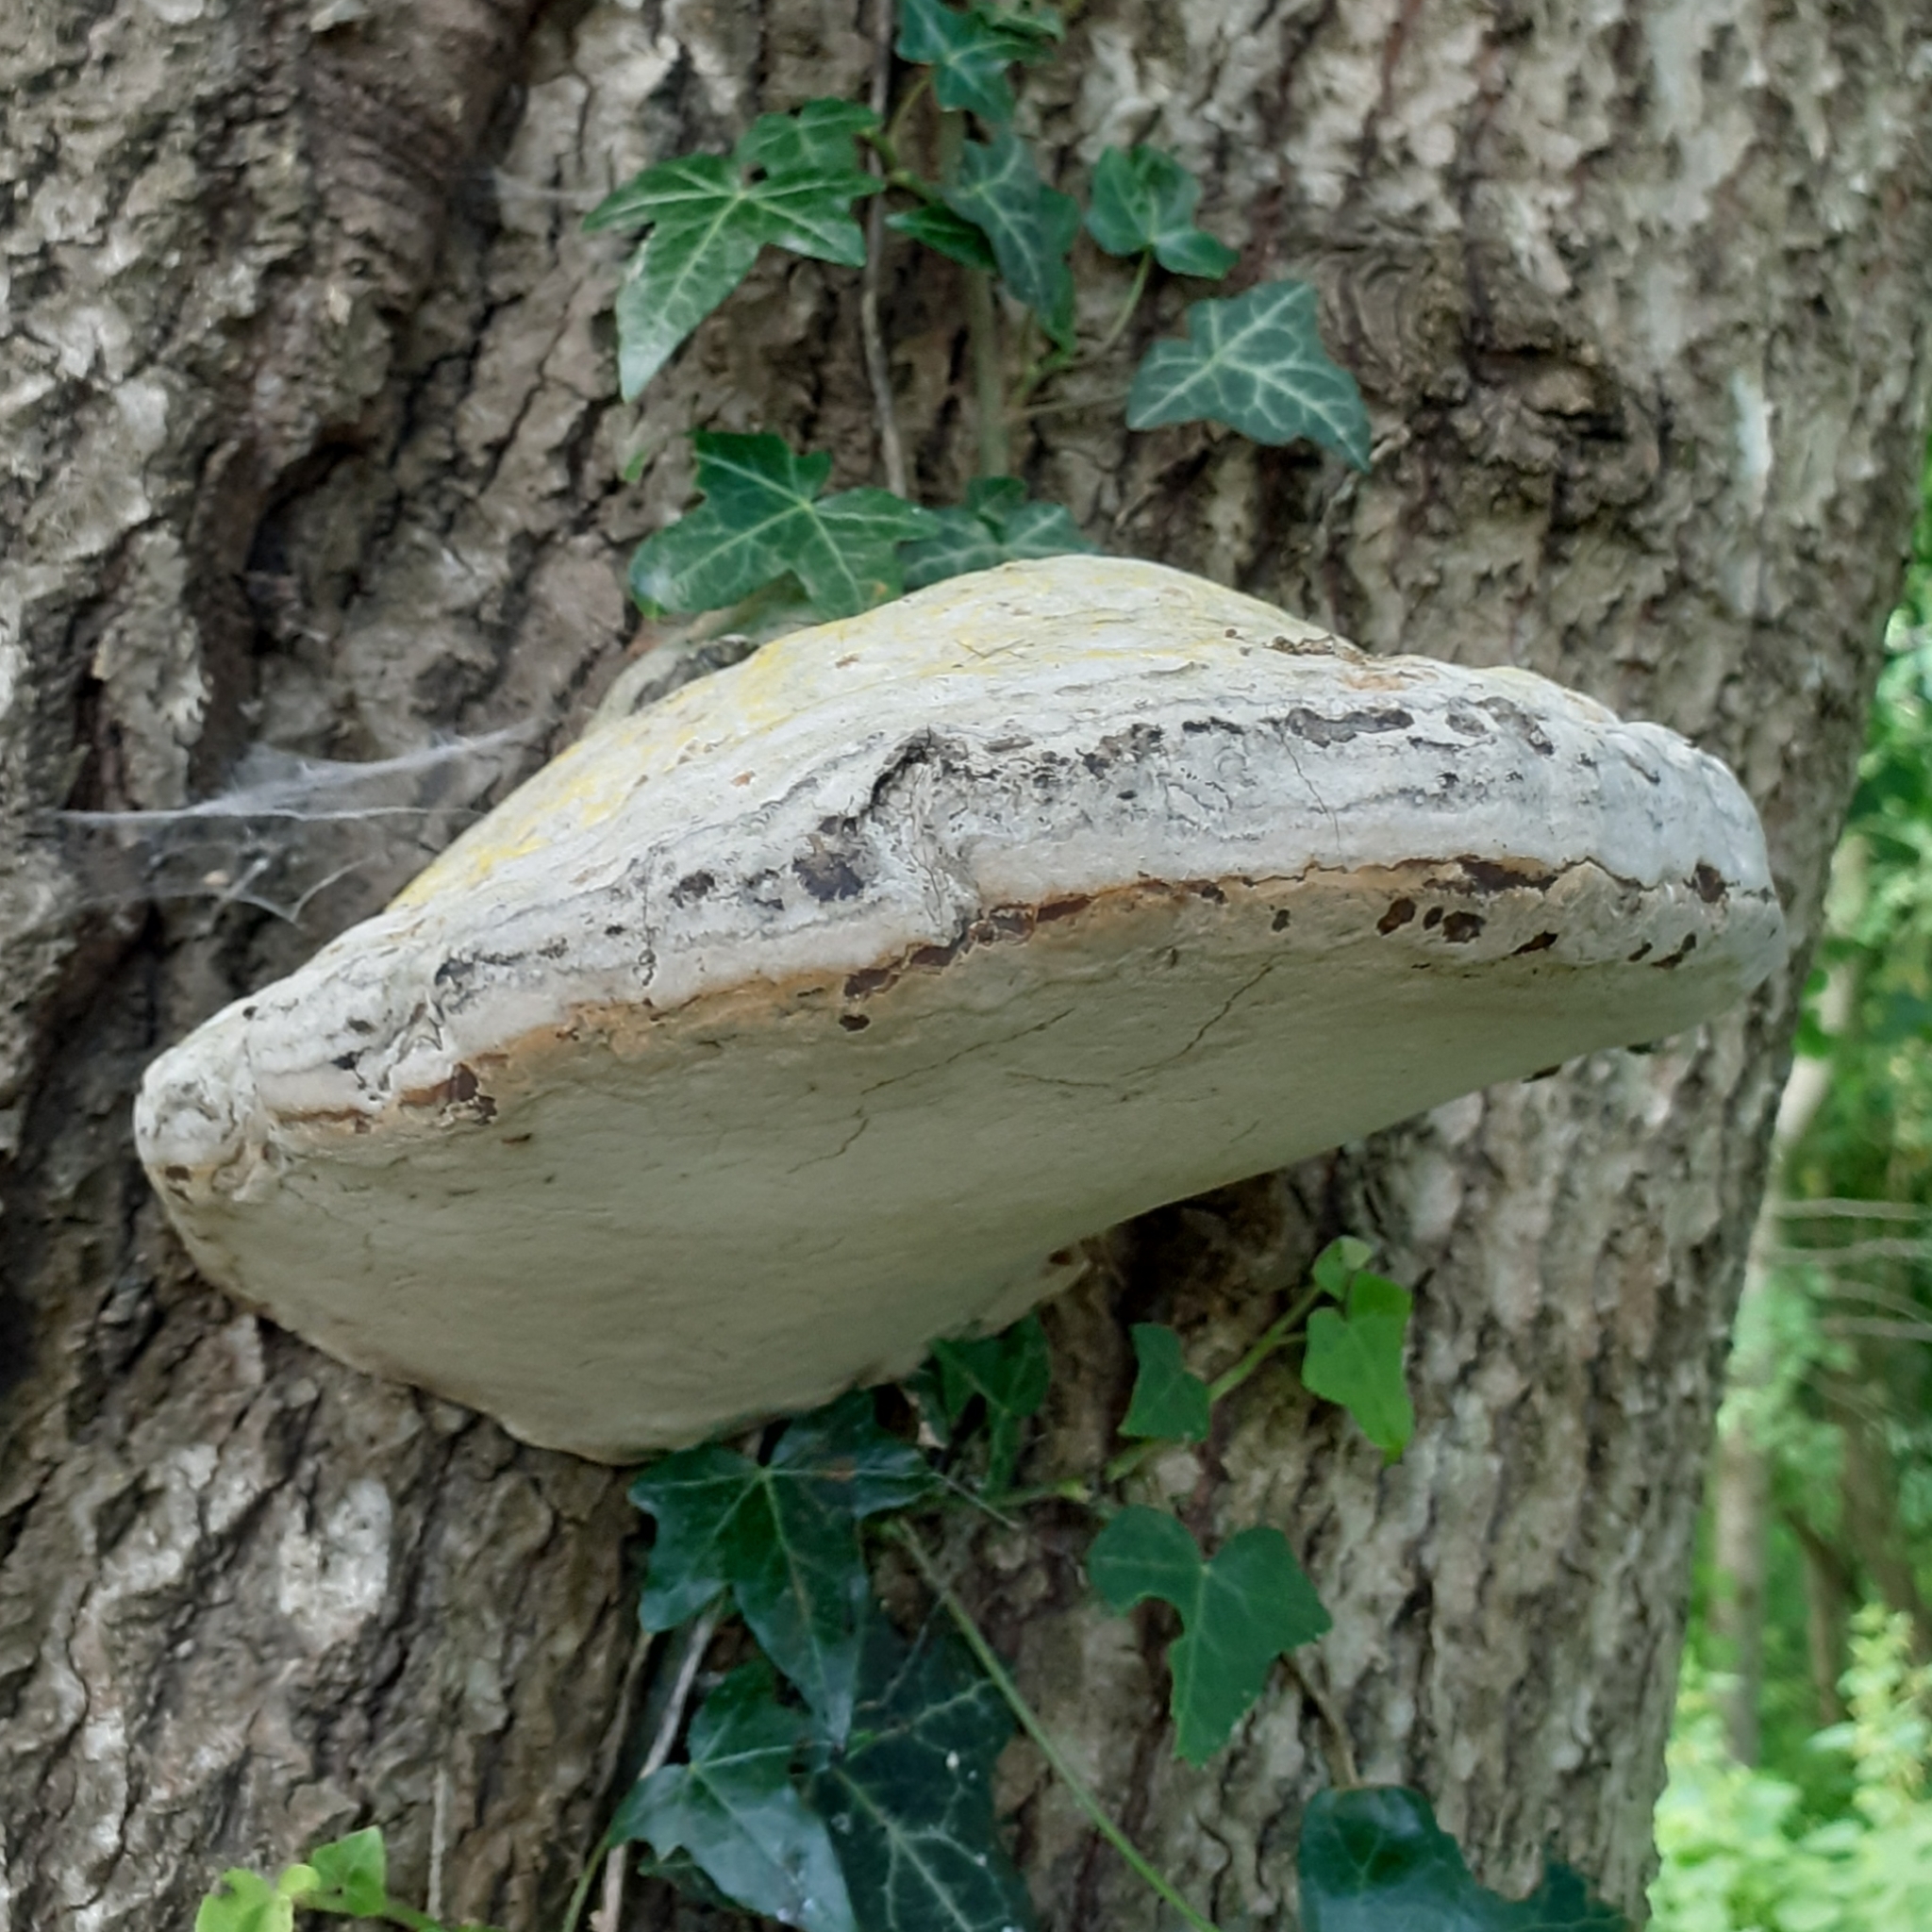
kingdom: Fungi
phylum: Basidiomycota
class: Agaricomycetes
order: Polyporales
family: Polyporaceae
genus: Fomes
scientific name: Fomes fomentarius
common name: Hoof fungus
